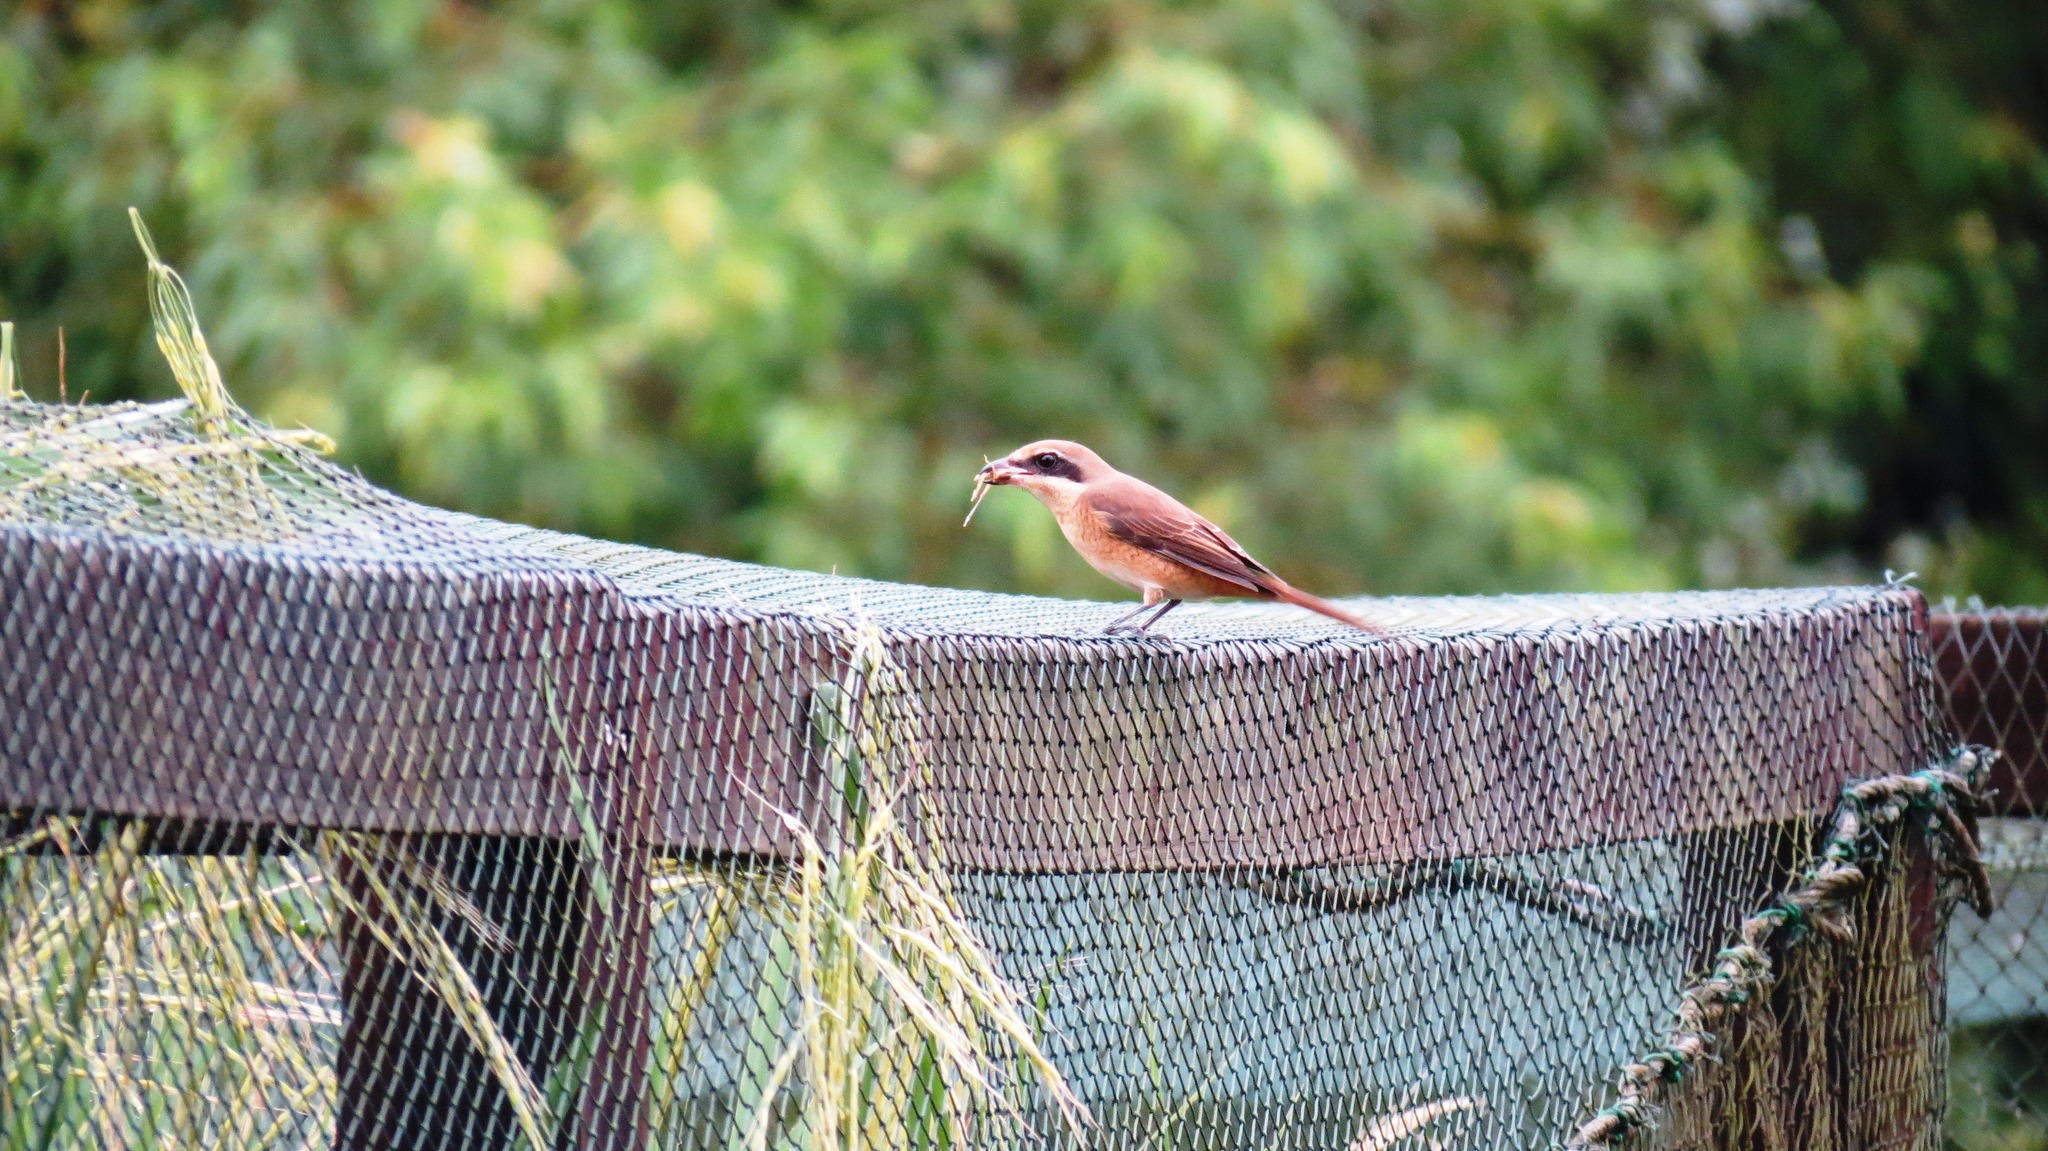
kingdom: Animalia
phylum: Chordata
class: Aves
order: Passeriformes
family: Laniidae
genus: Lanius
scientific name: Lanius cristatus
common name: Brown shrike
